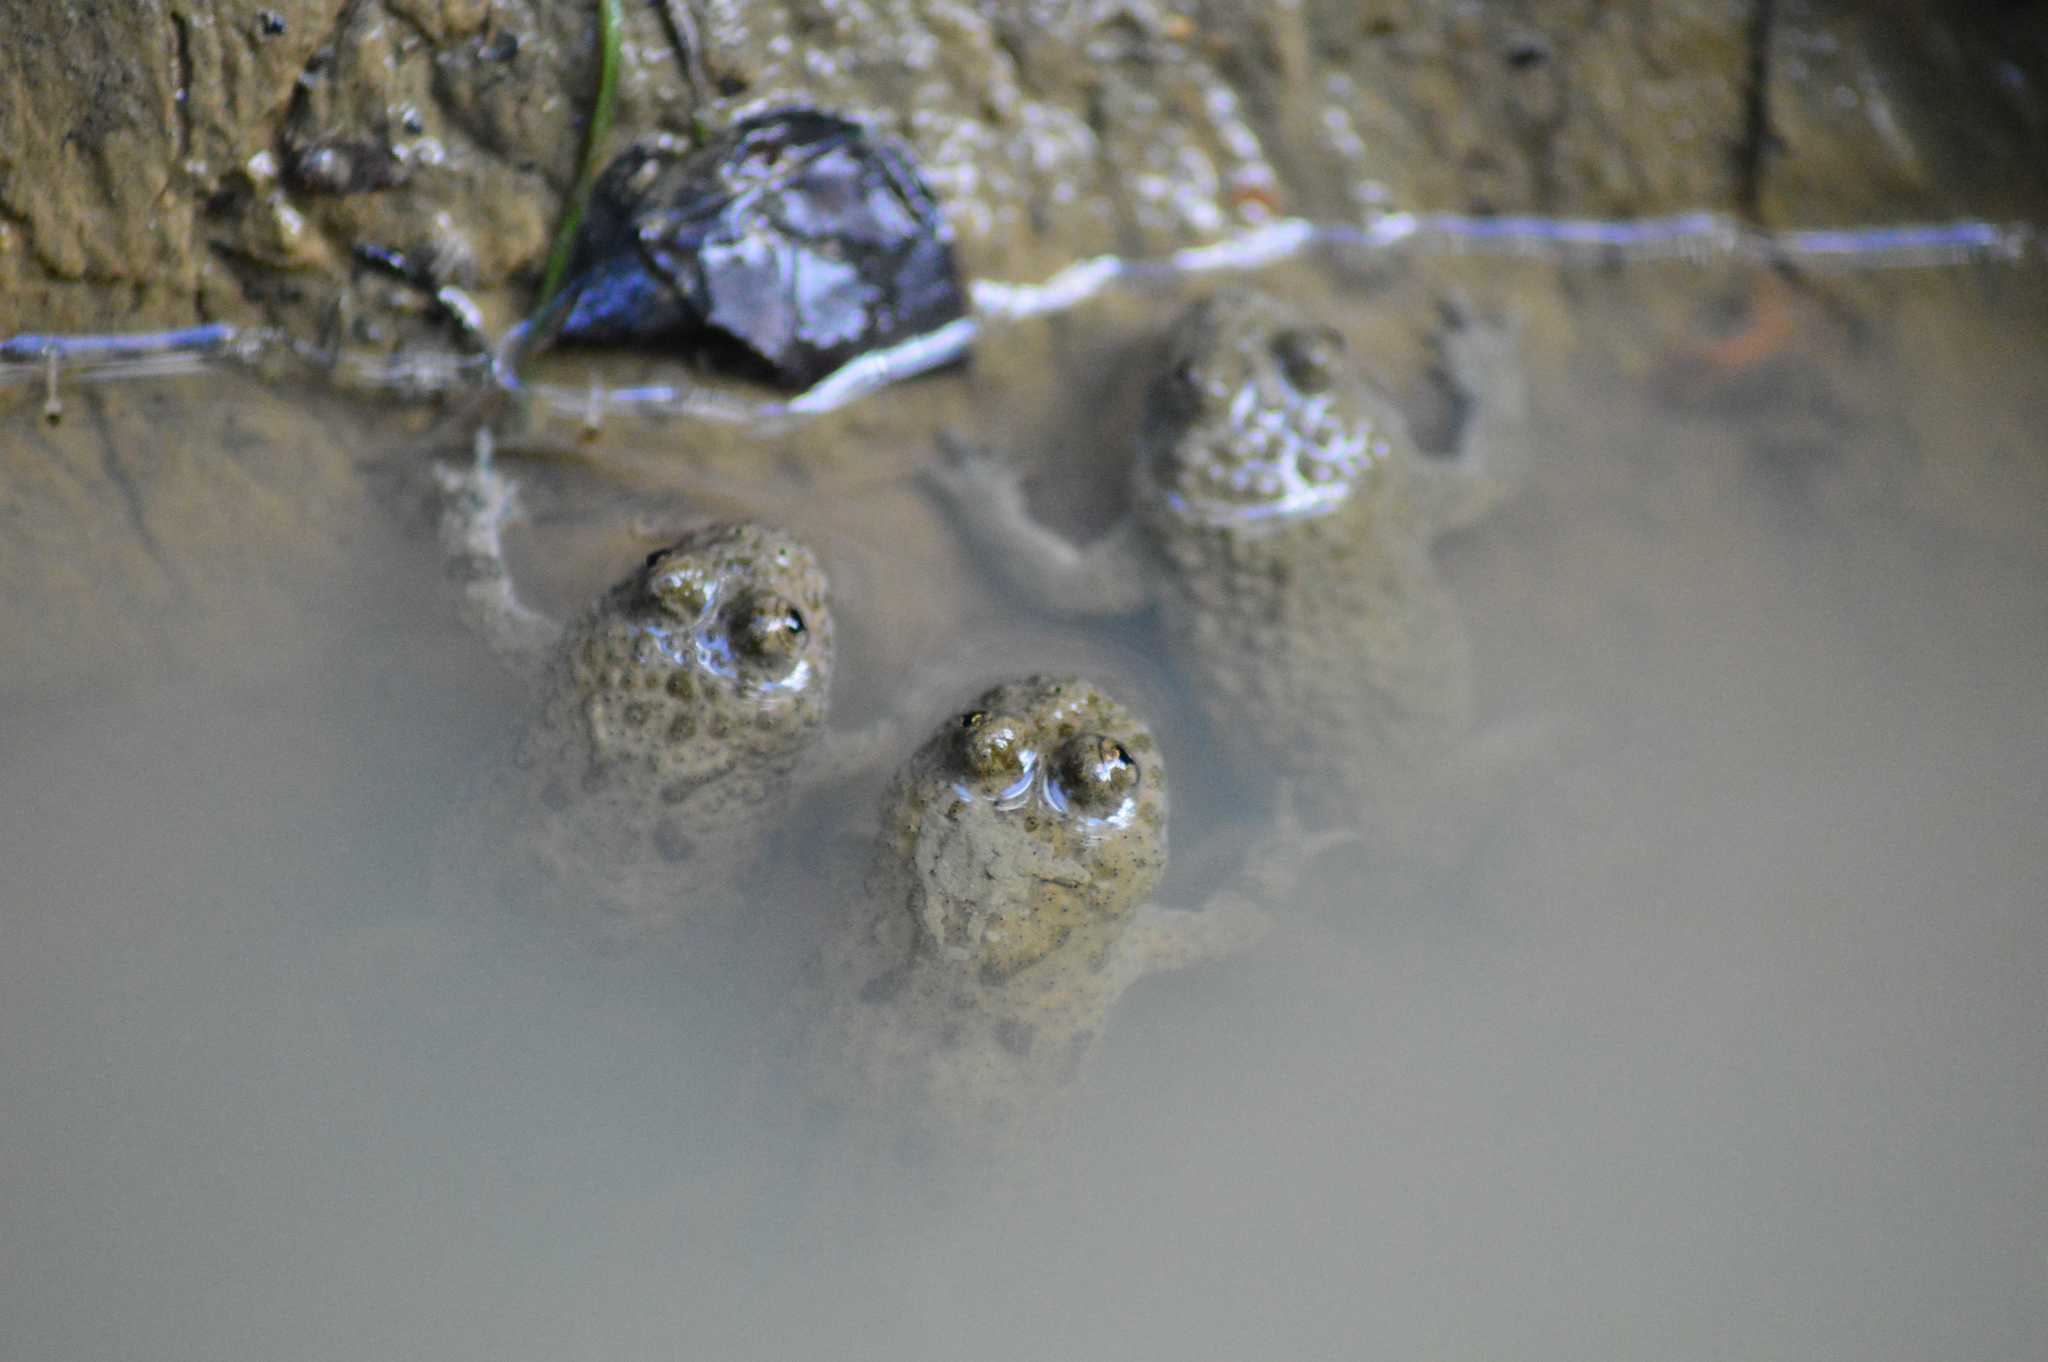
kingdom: Animalia
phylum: Chordata
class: Amphibia
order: Anura
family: Bombinatoridae
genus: Bombina
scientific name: Bombina variegata
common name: Yellow-bellied toad
